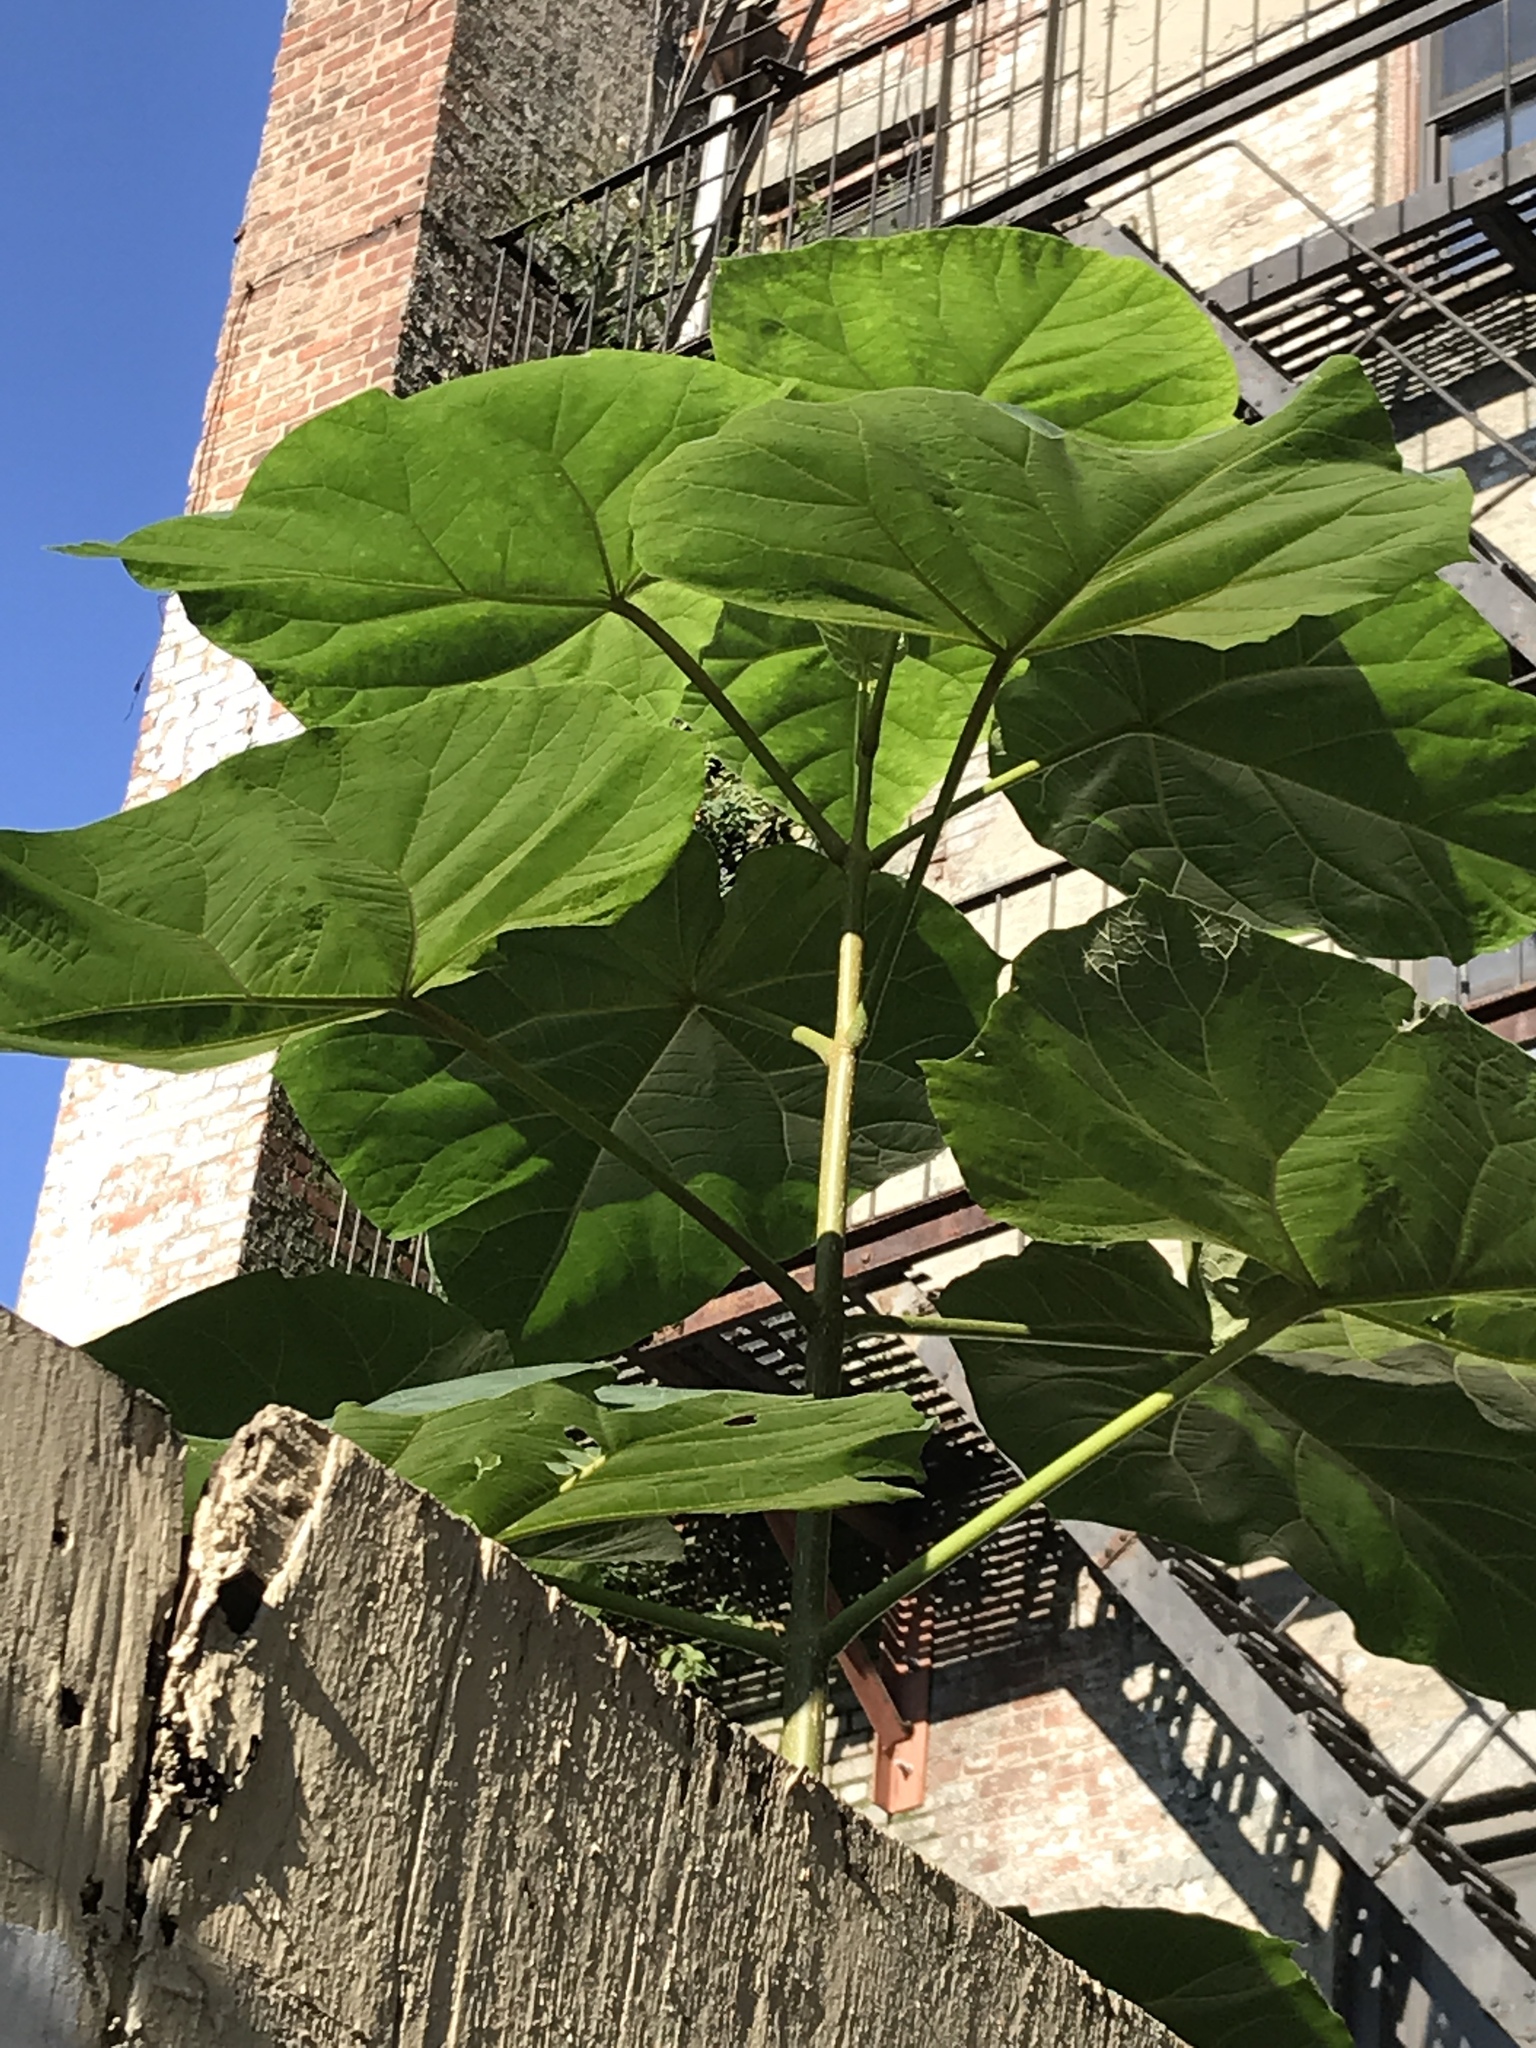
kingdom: Plantae
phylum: Tracheophyta
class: Magnoliopsida
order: Lamiales
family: Paulowniaceae
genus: Paulownia
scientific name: Paulownia tomentosa
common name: Foxglove-tree
